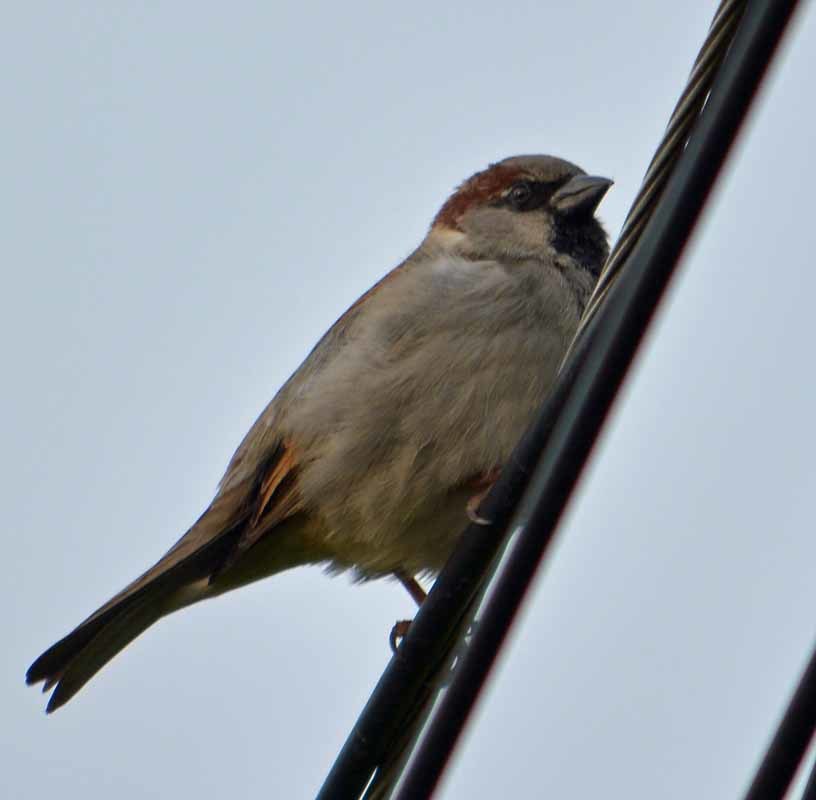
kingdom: Animalia
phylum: Chordata
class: Aves
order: Passeriformes
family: Passeridae
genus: Passer
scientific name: Passer domesticus
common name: House sparrow
